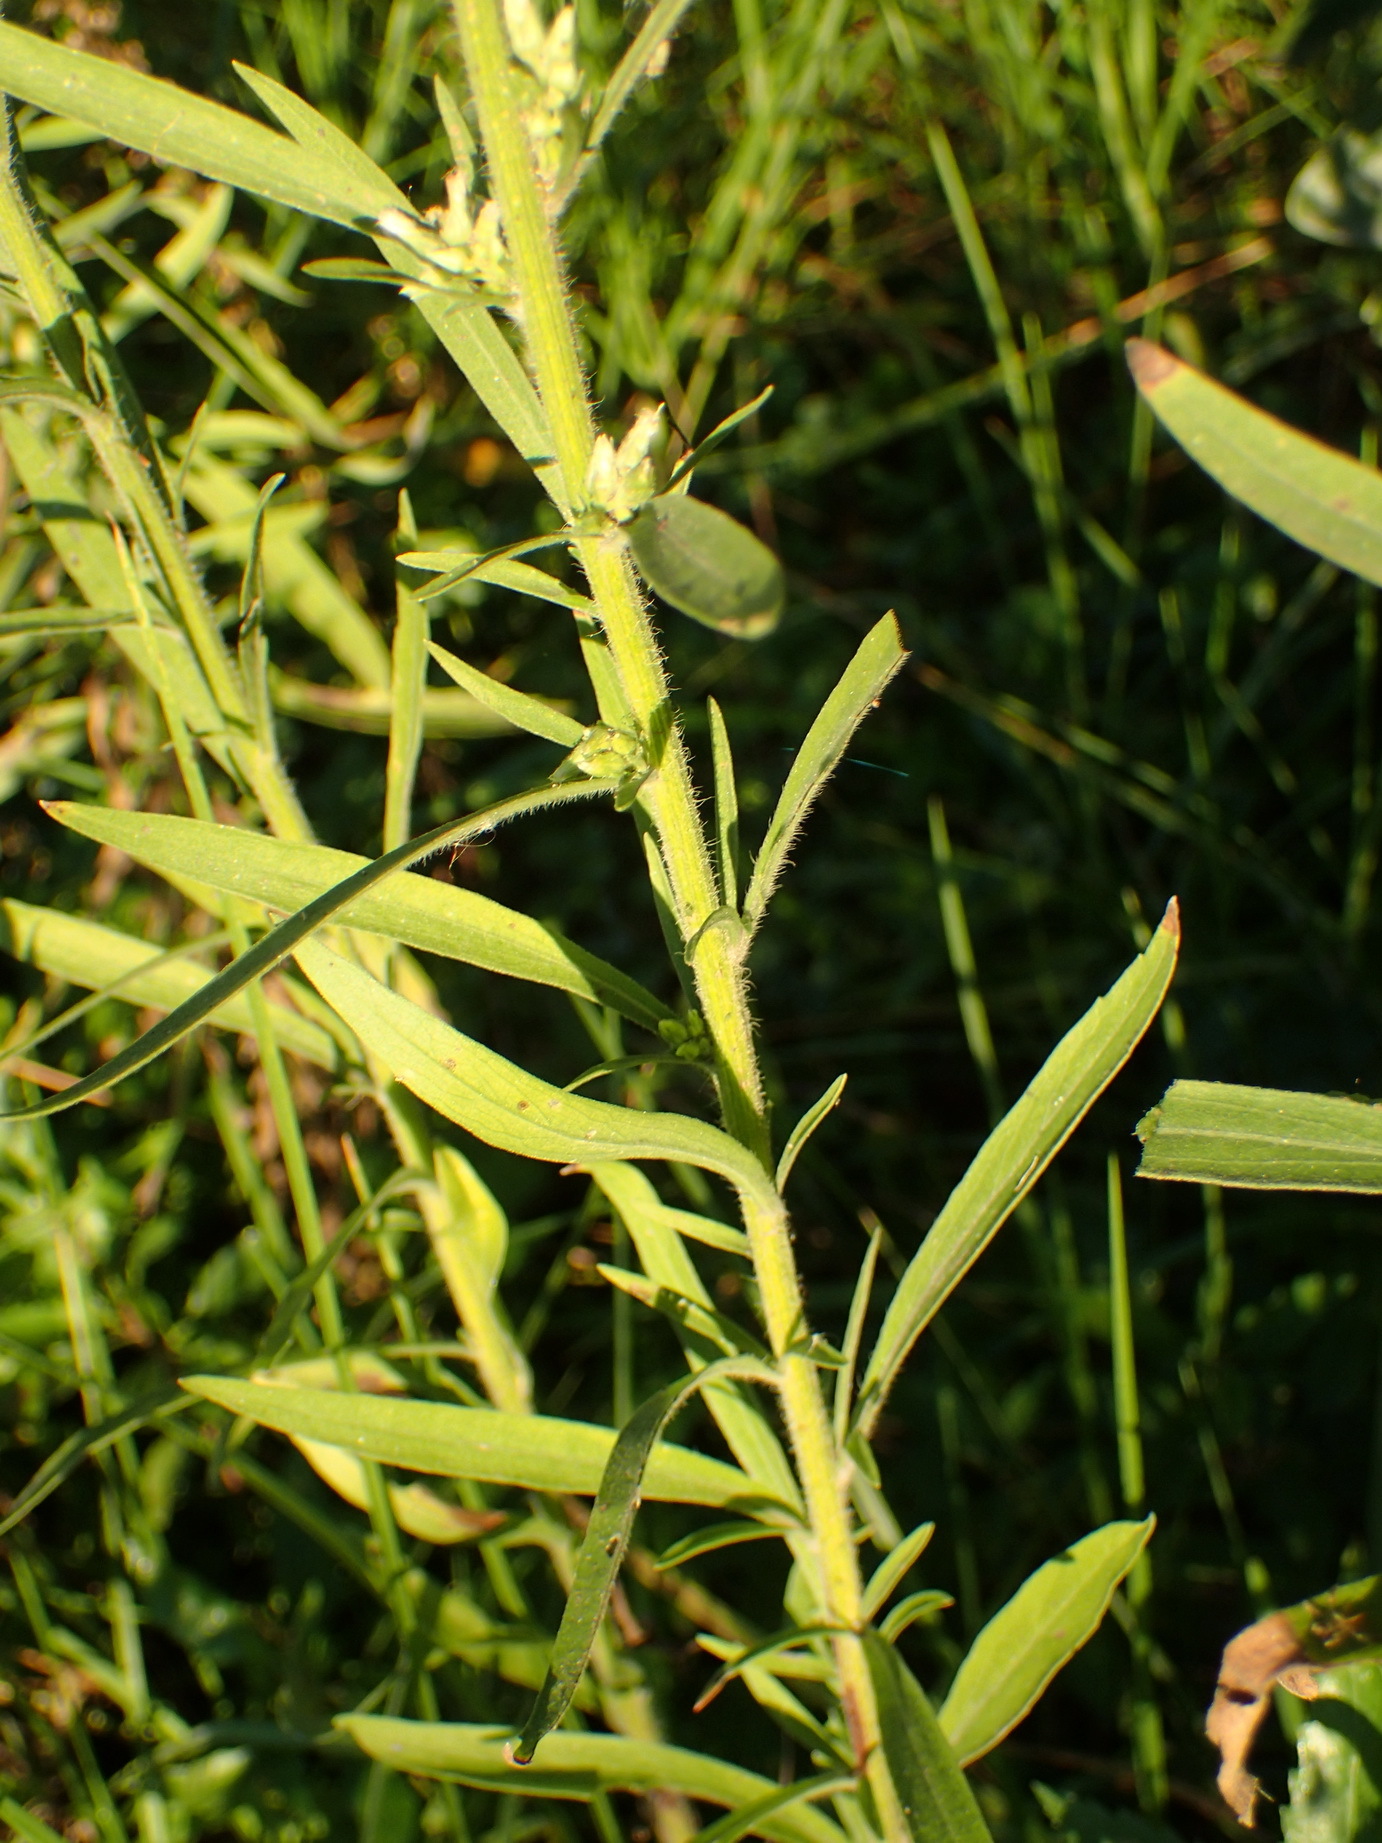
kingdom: Plantae
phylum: Tracheophyta
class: Magnoliopsida
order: Asterales
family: Asteraceae
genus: Erigeron
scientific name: Erigeron sumatrensis
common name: Daisy
